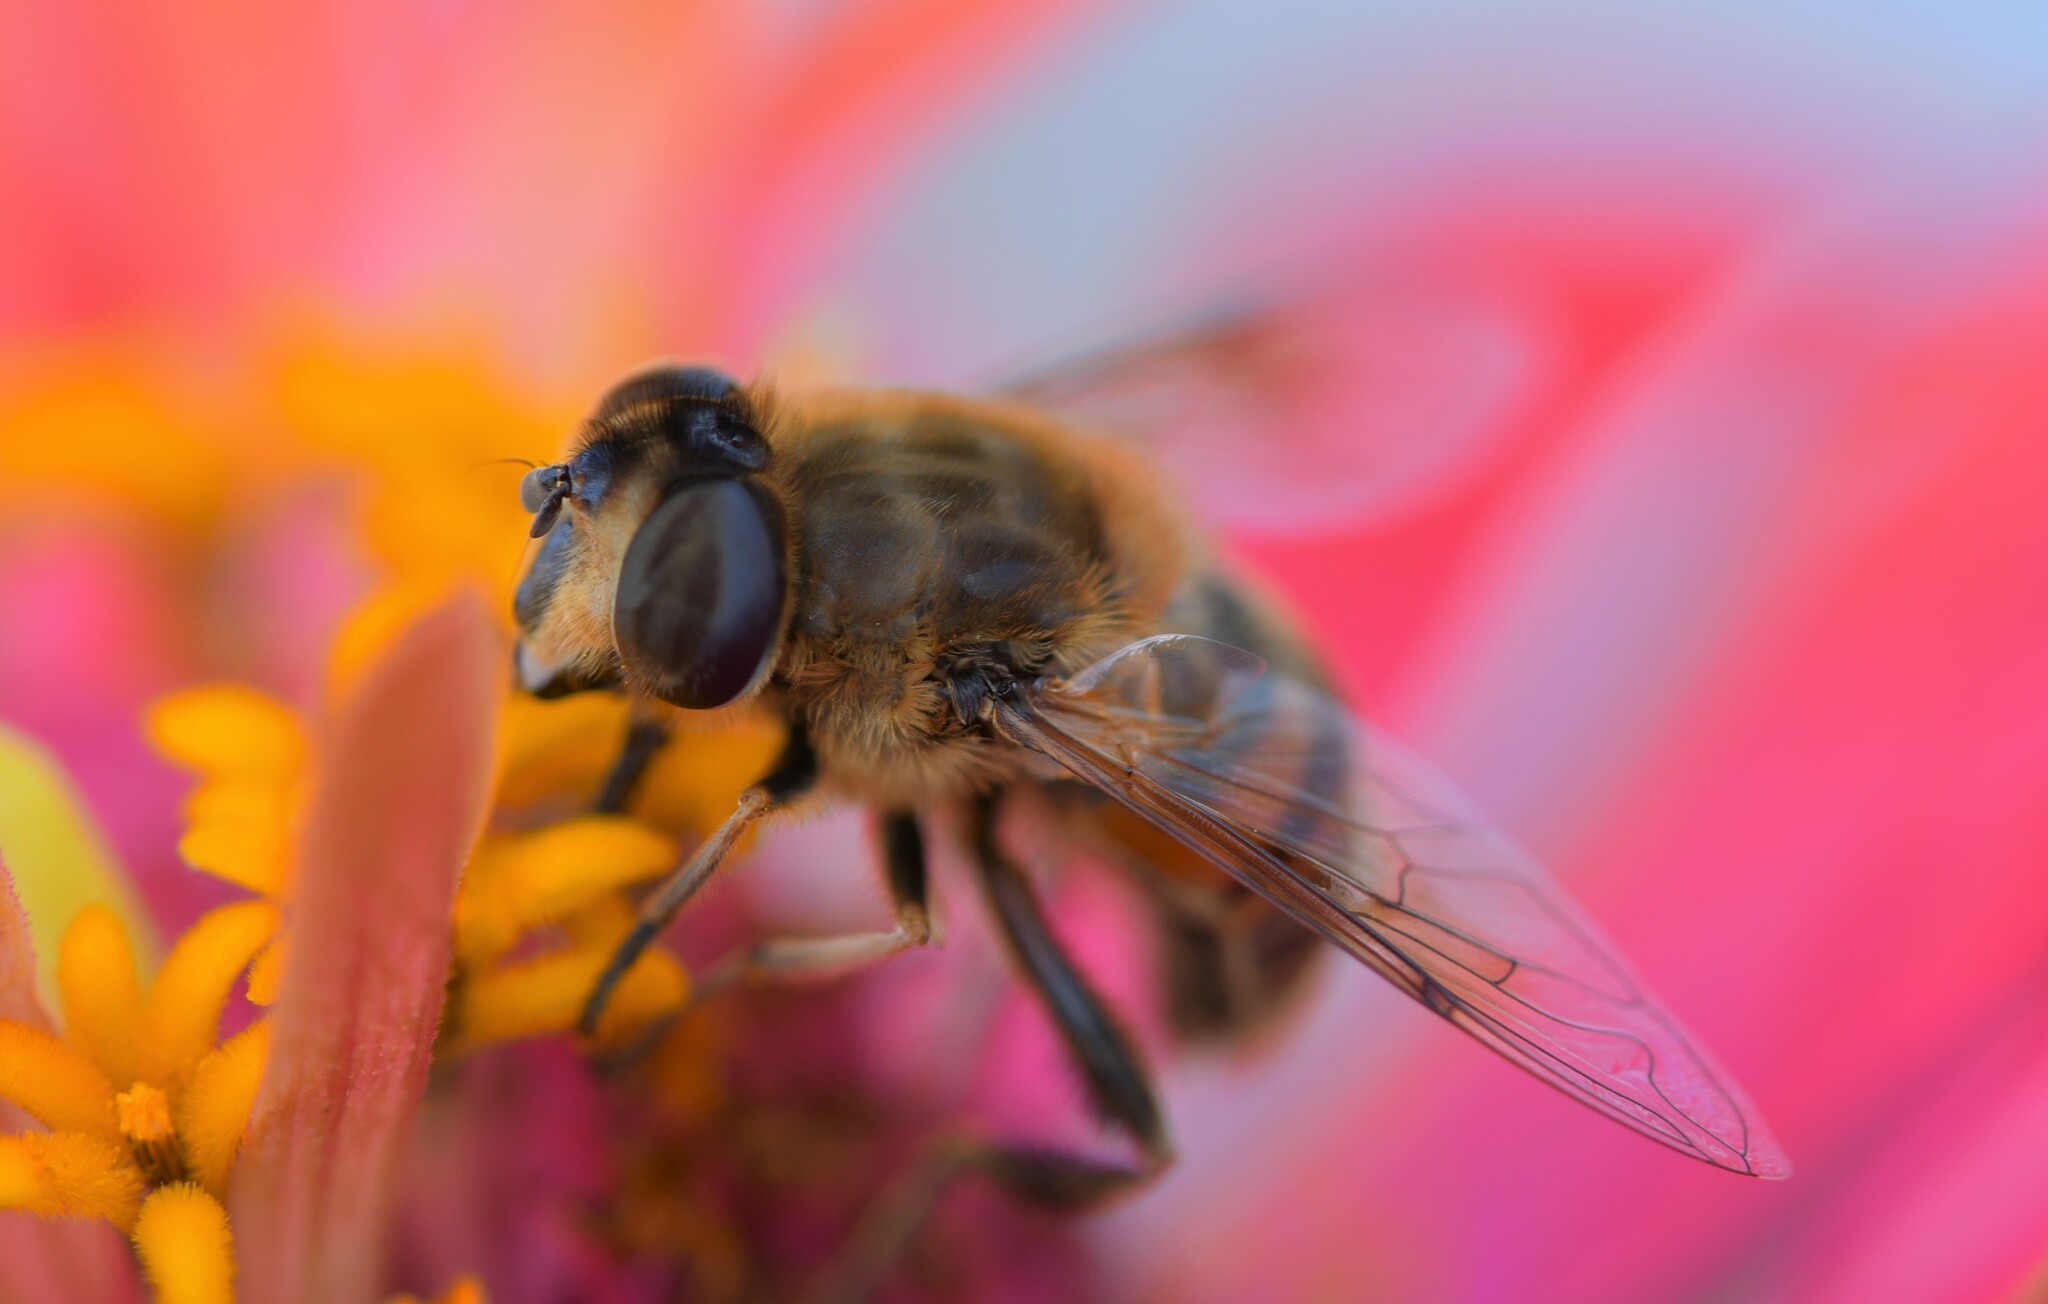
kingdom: Animalia
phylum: Arthropoda
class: Insecta
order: Diptera
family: Syrphidae
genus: Eristalis
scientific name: Eristalis tenax
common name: Drone fly
